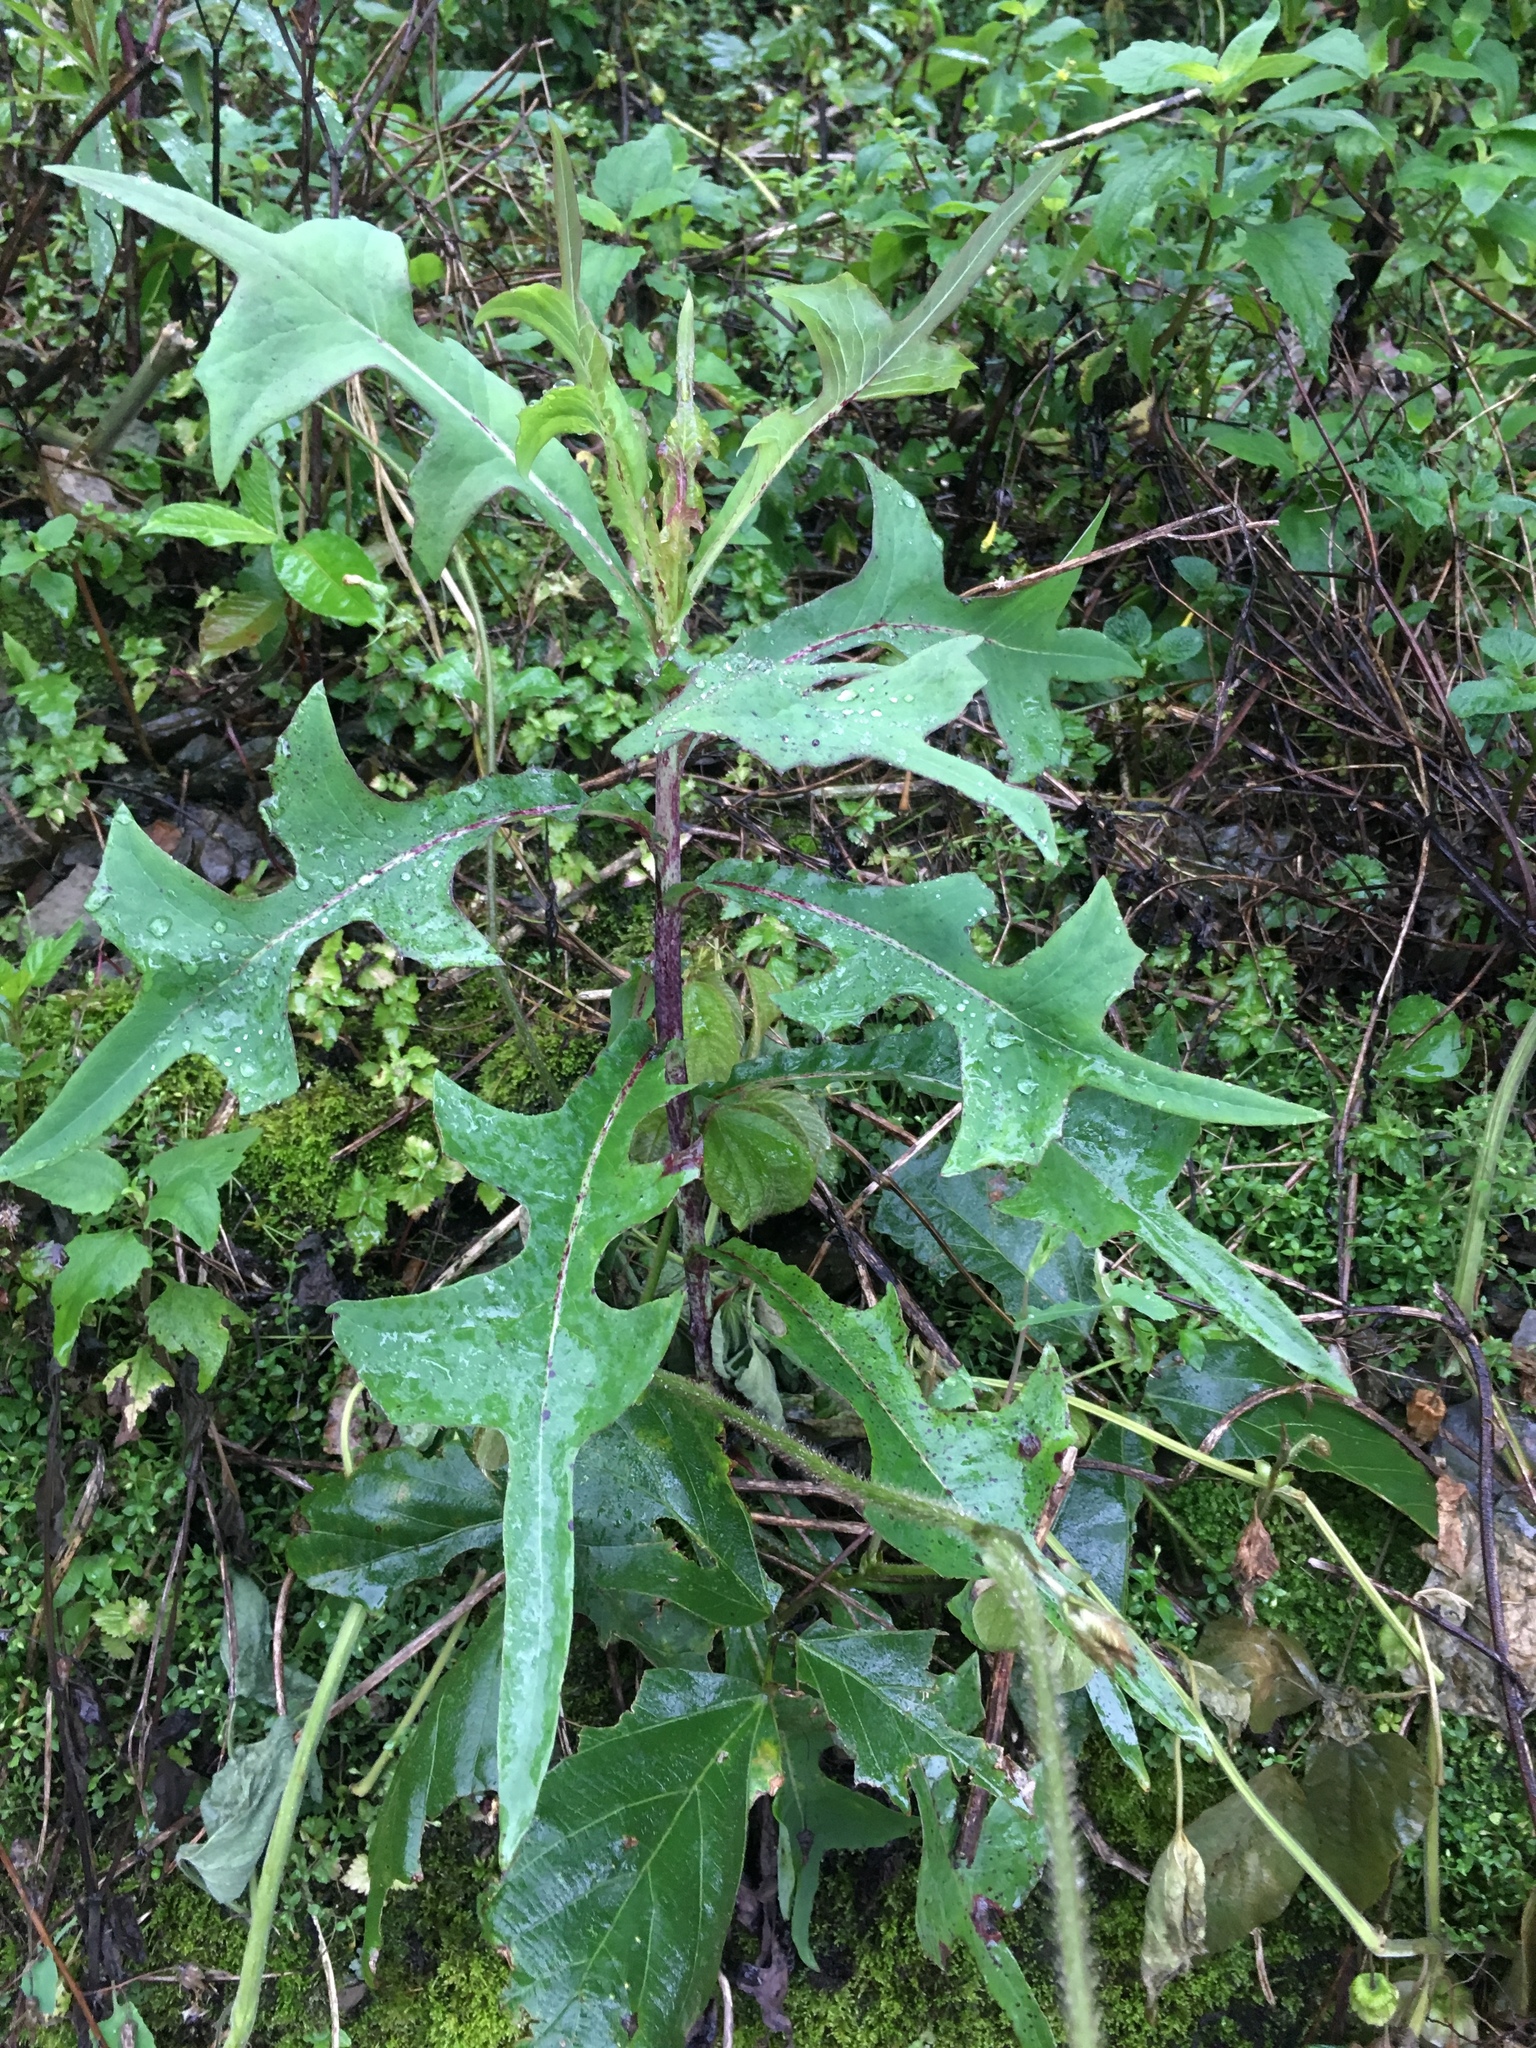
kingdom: Plantae
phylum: Tracheophyta
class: Magnoliopsida
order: Asterales
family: Asteraceae
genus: Lactuca
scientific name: Lactuca indica
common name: Wild lettuce
